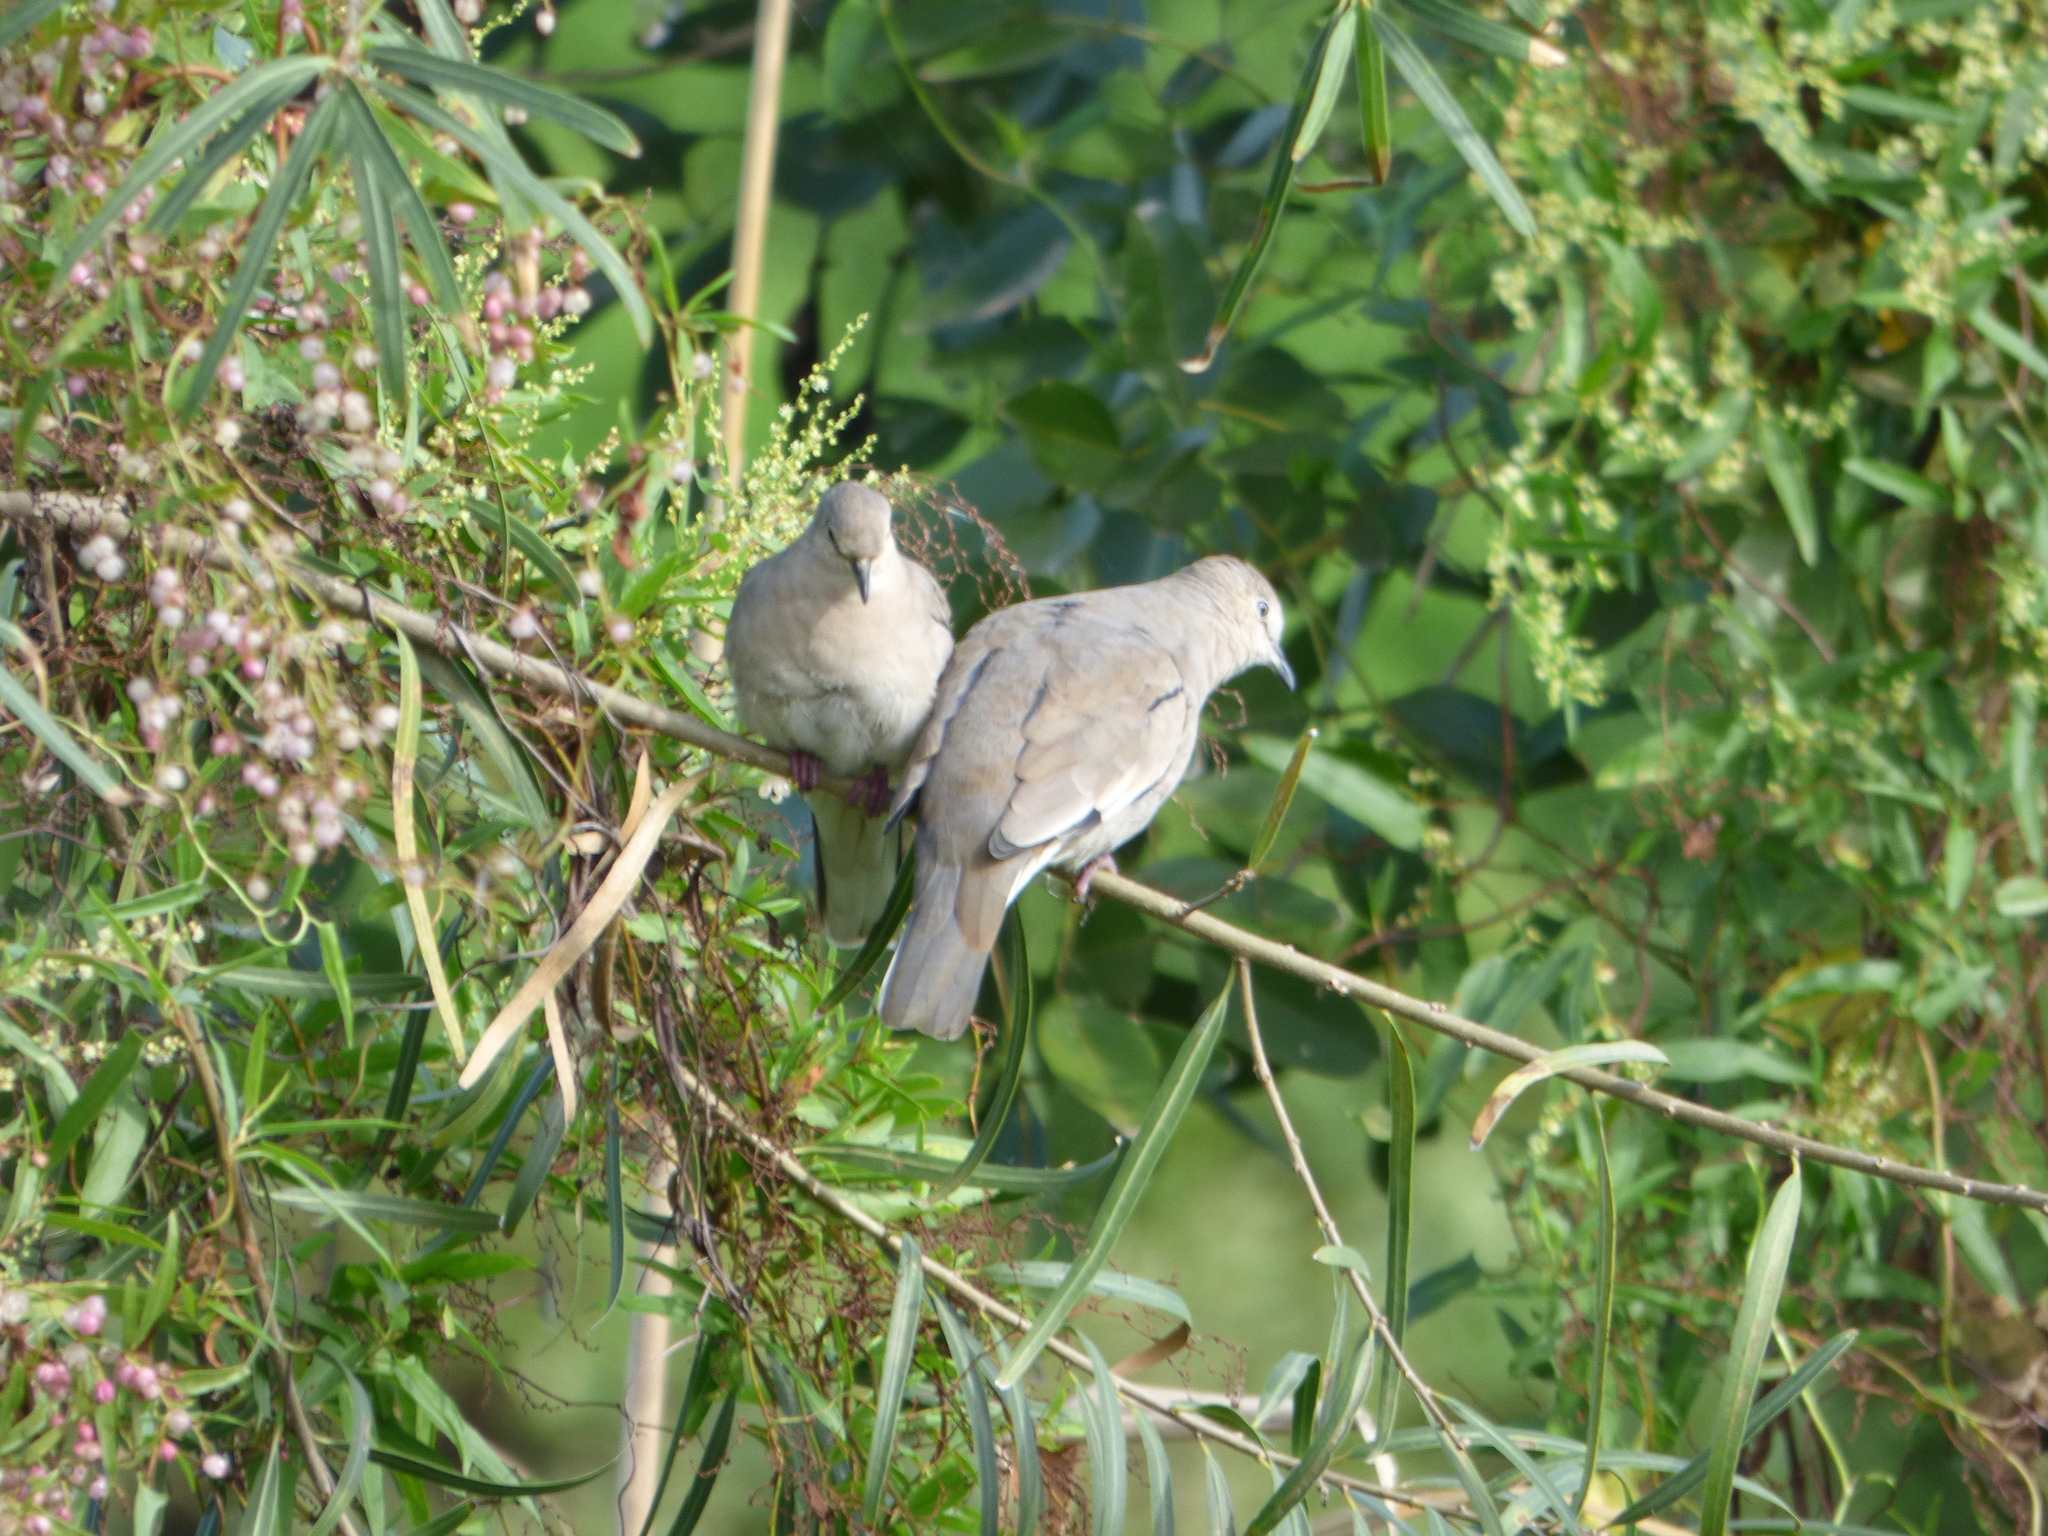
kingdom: Animalia
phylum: Chordata
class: Aves
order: Columbiformes
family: Columbidae
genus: Columbina
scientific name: Columbina picui
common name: Picui ground dove
